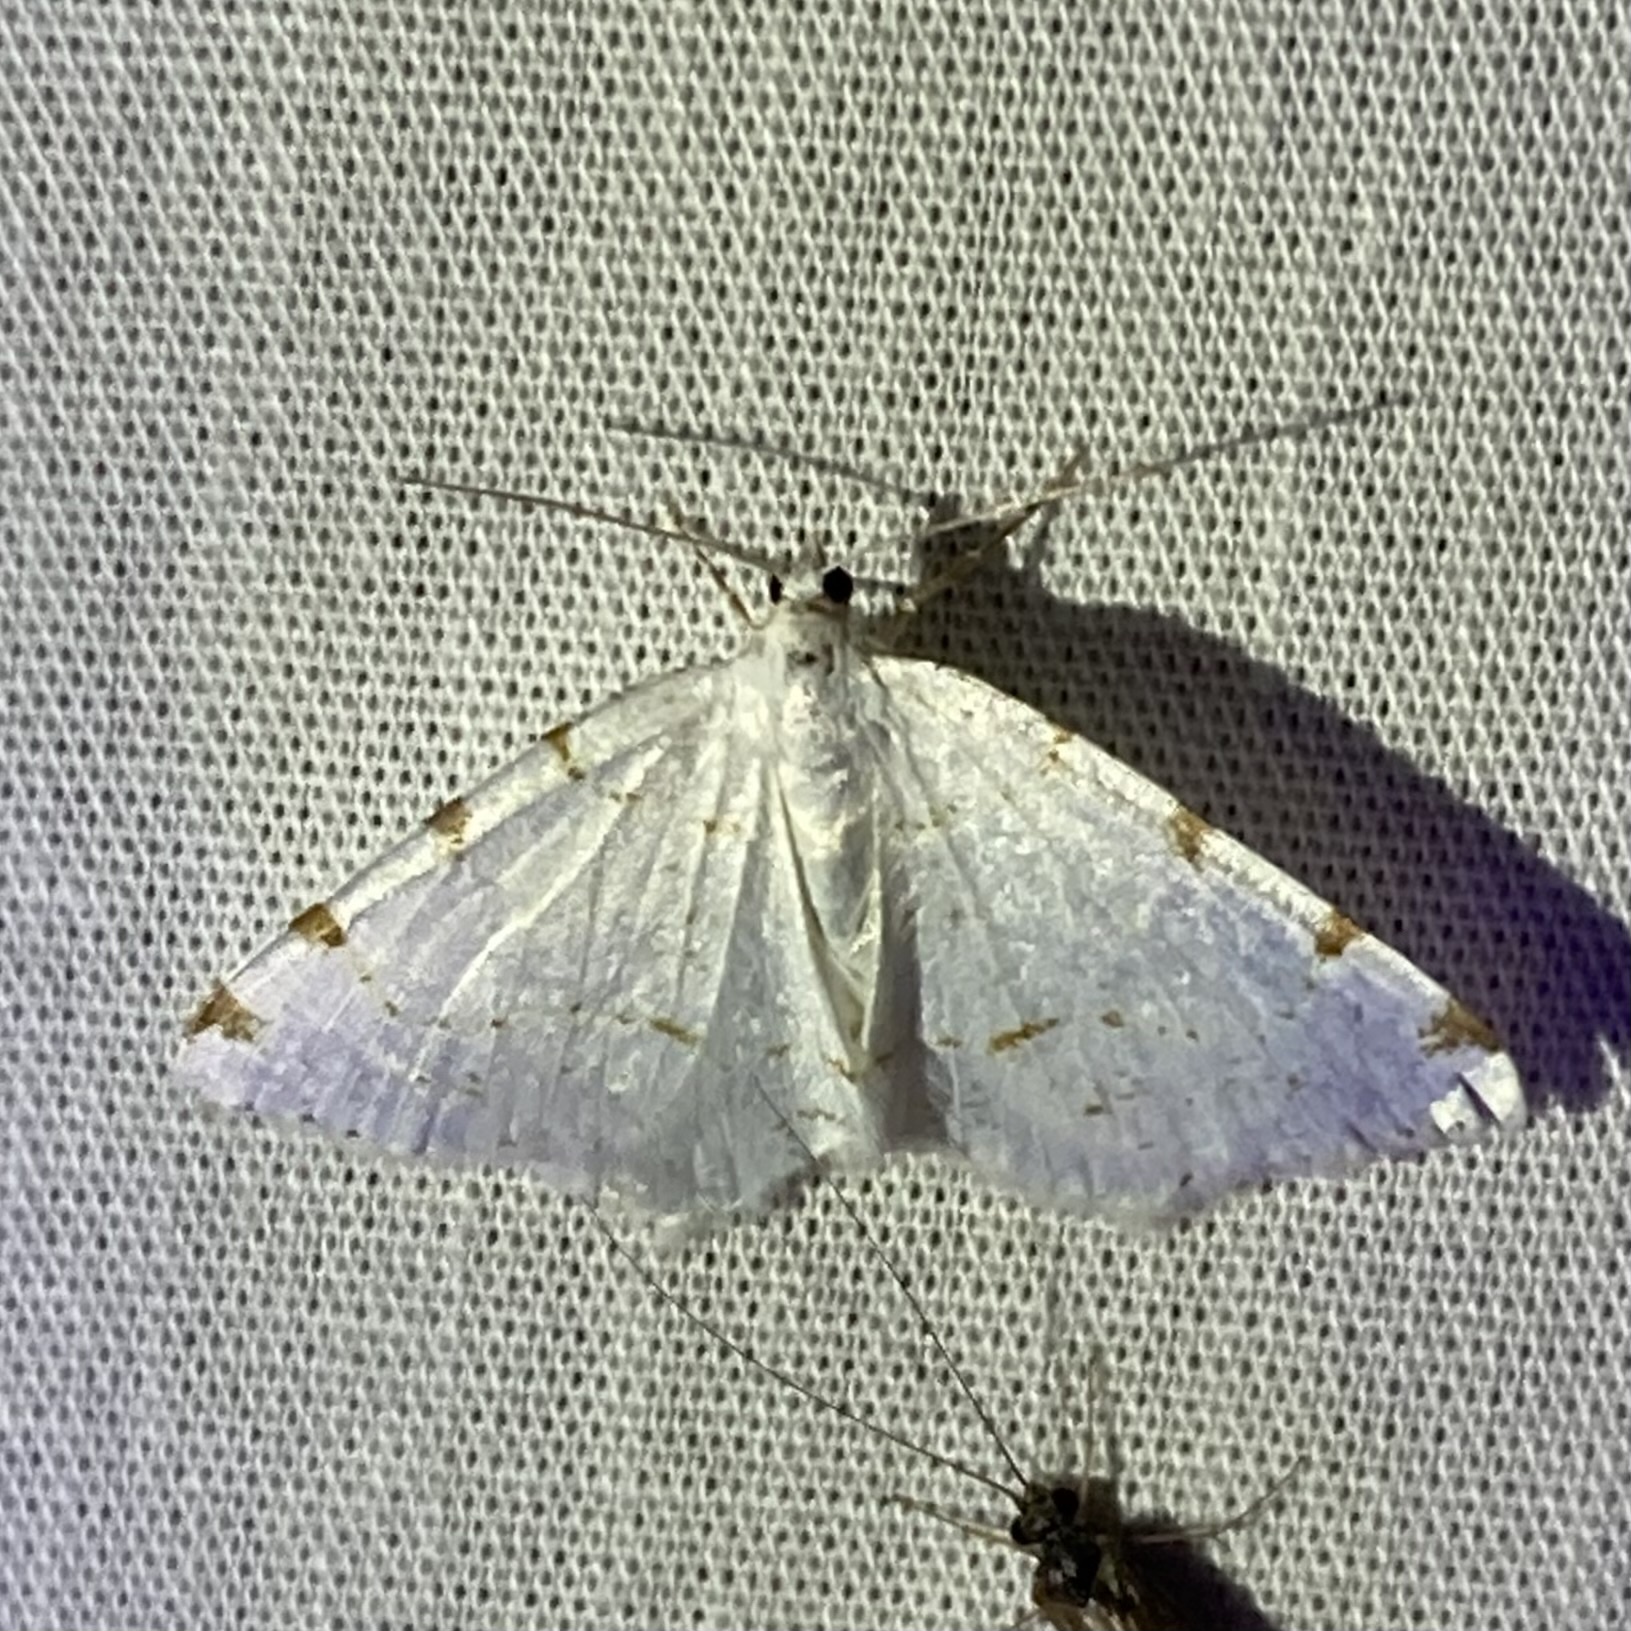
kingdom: Animalia
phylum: Arthropoda
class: Insecta
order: Lepidoptera
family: Geometridae
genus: Macaria
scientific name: Macaria pustularia
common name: Lesser maple spanworm moth
